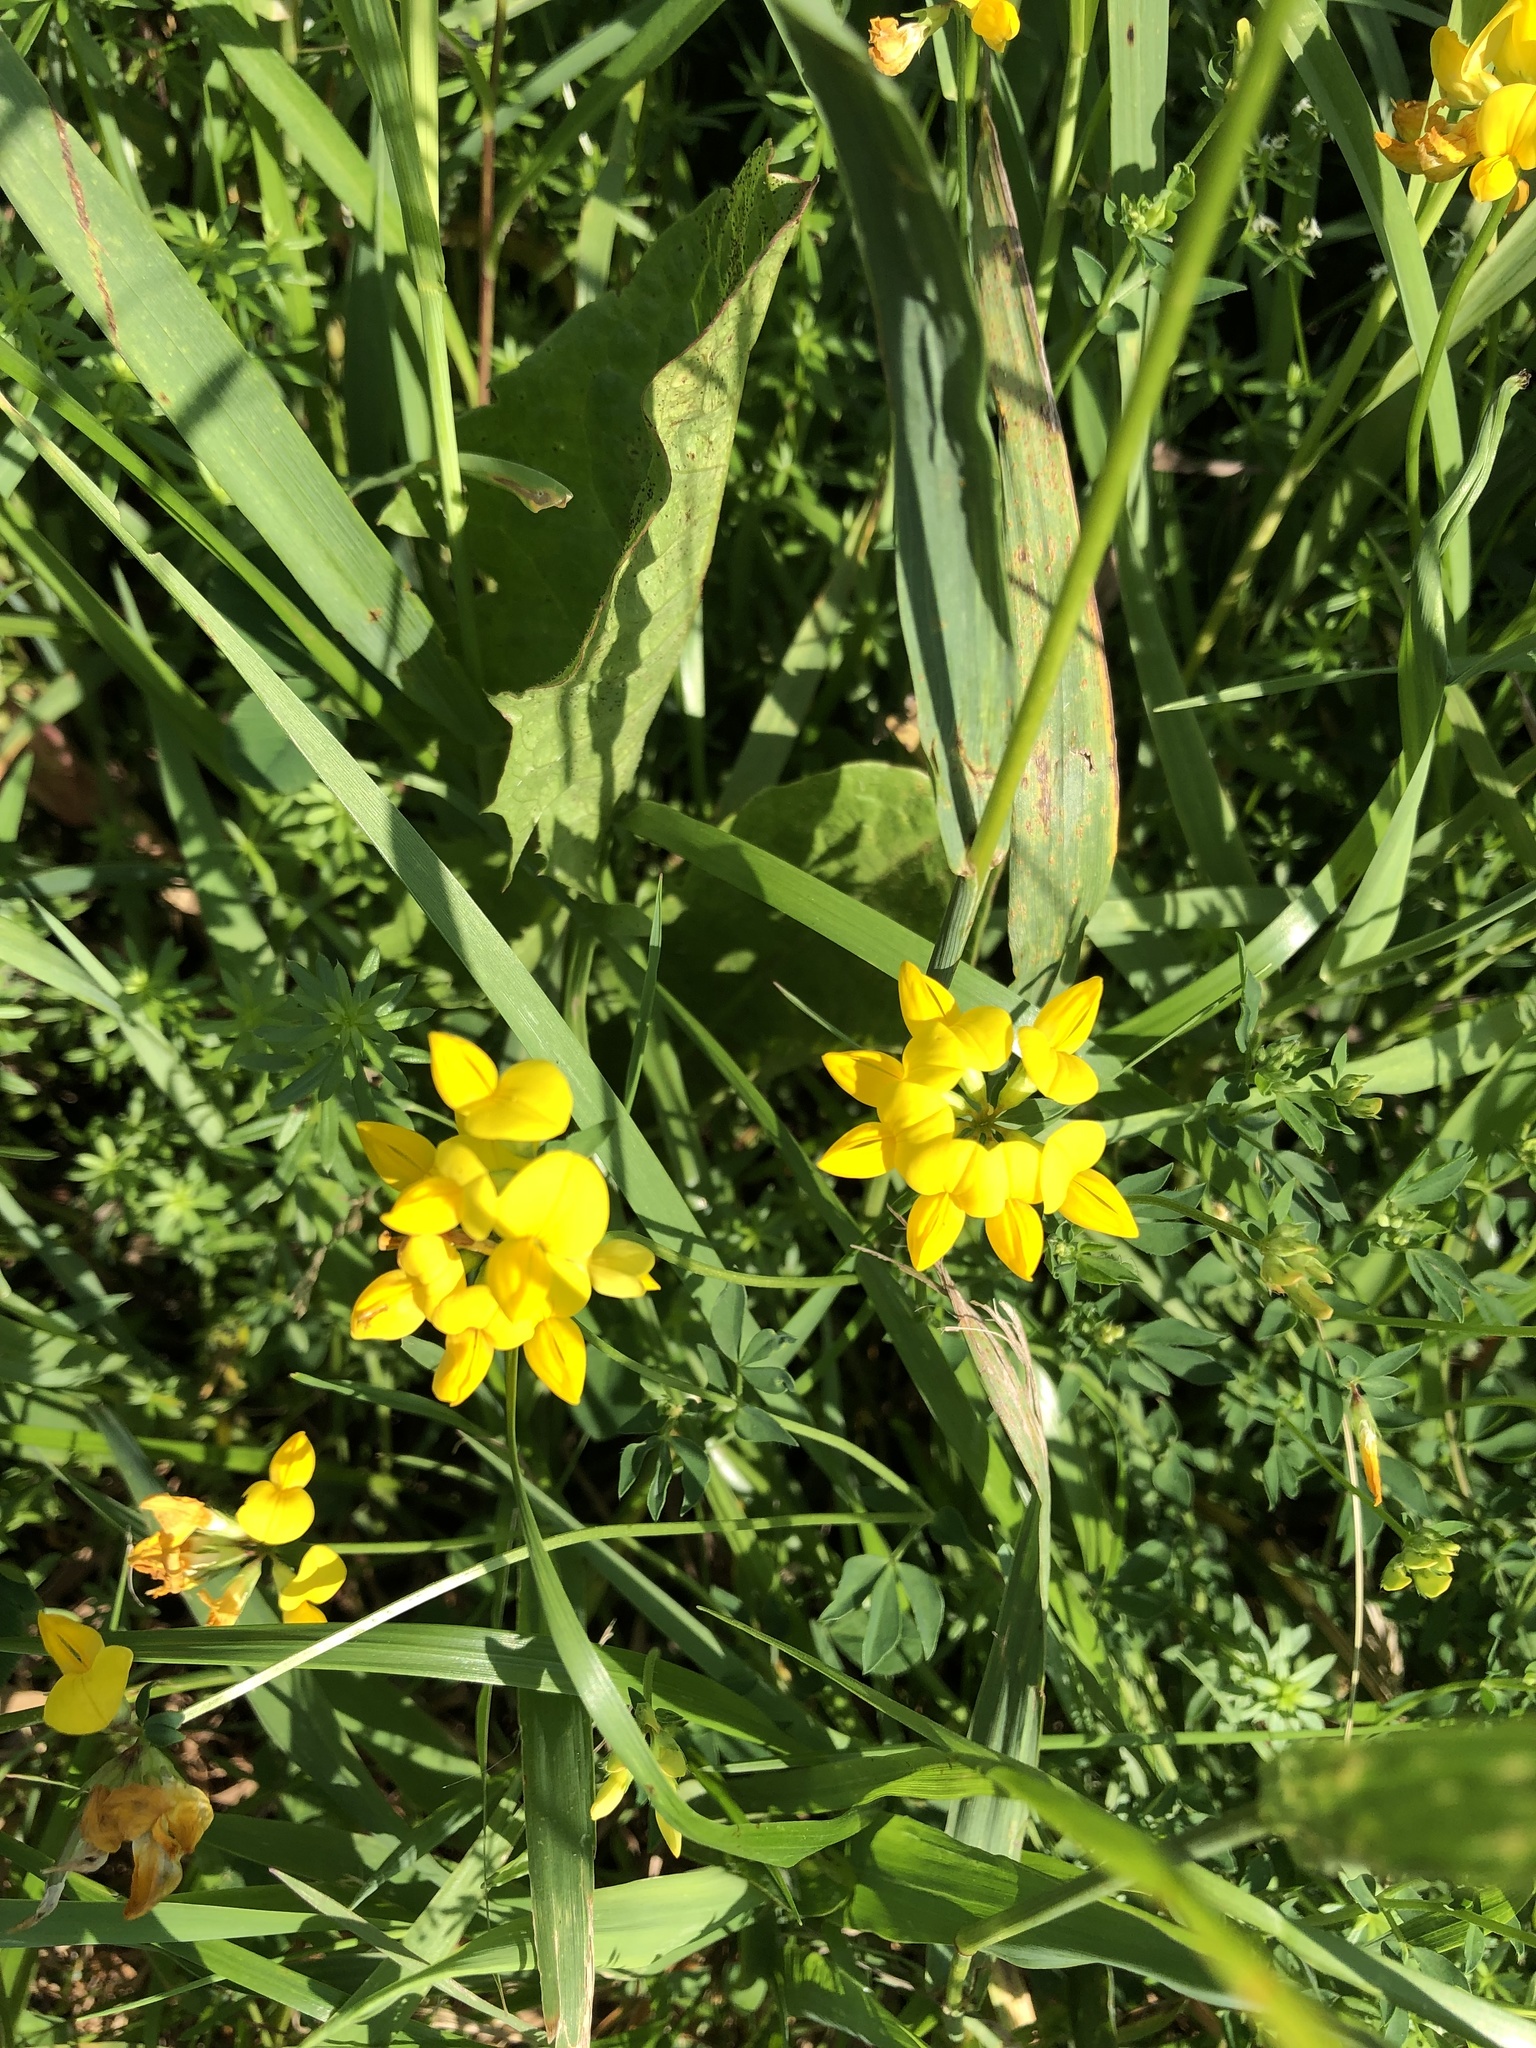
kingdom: Plantae
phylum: Tracheophyta
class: Magnoliopsida
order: Fabales
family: Fabaceae
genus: Lotus
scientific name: Lotus corniculatus
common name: Common bird's-foot-trefoil
